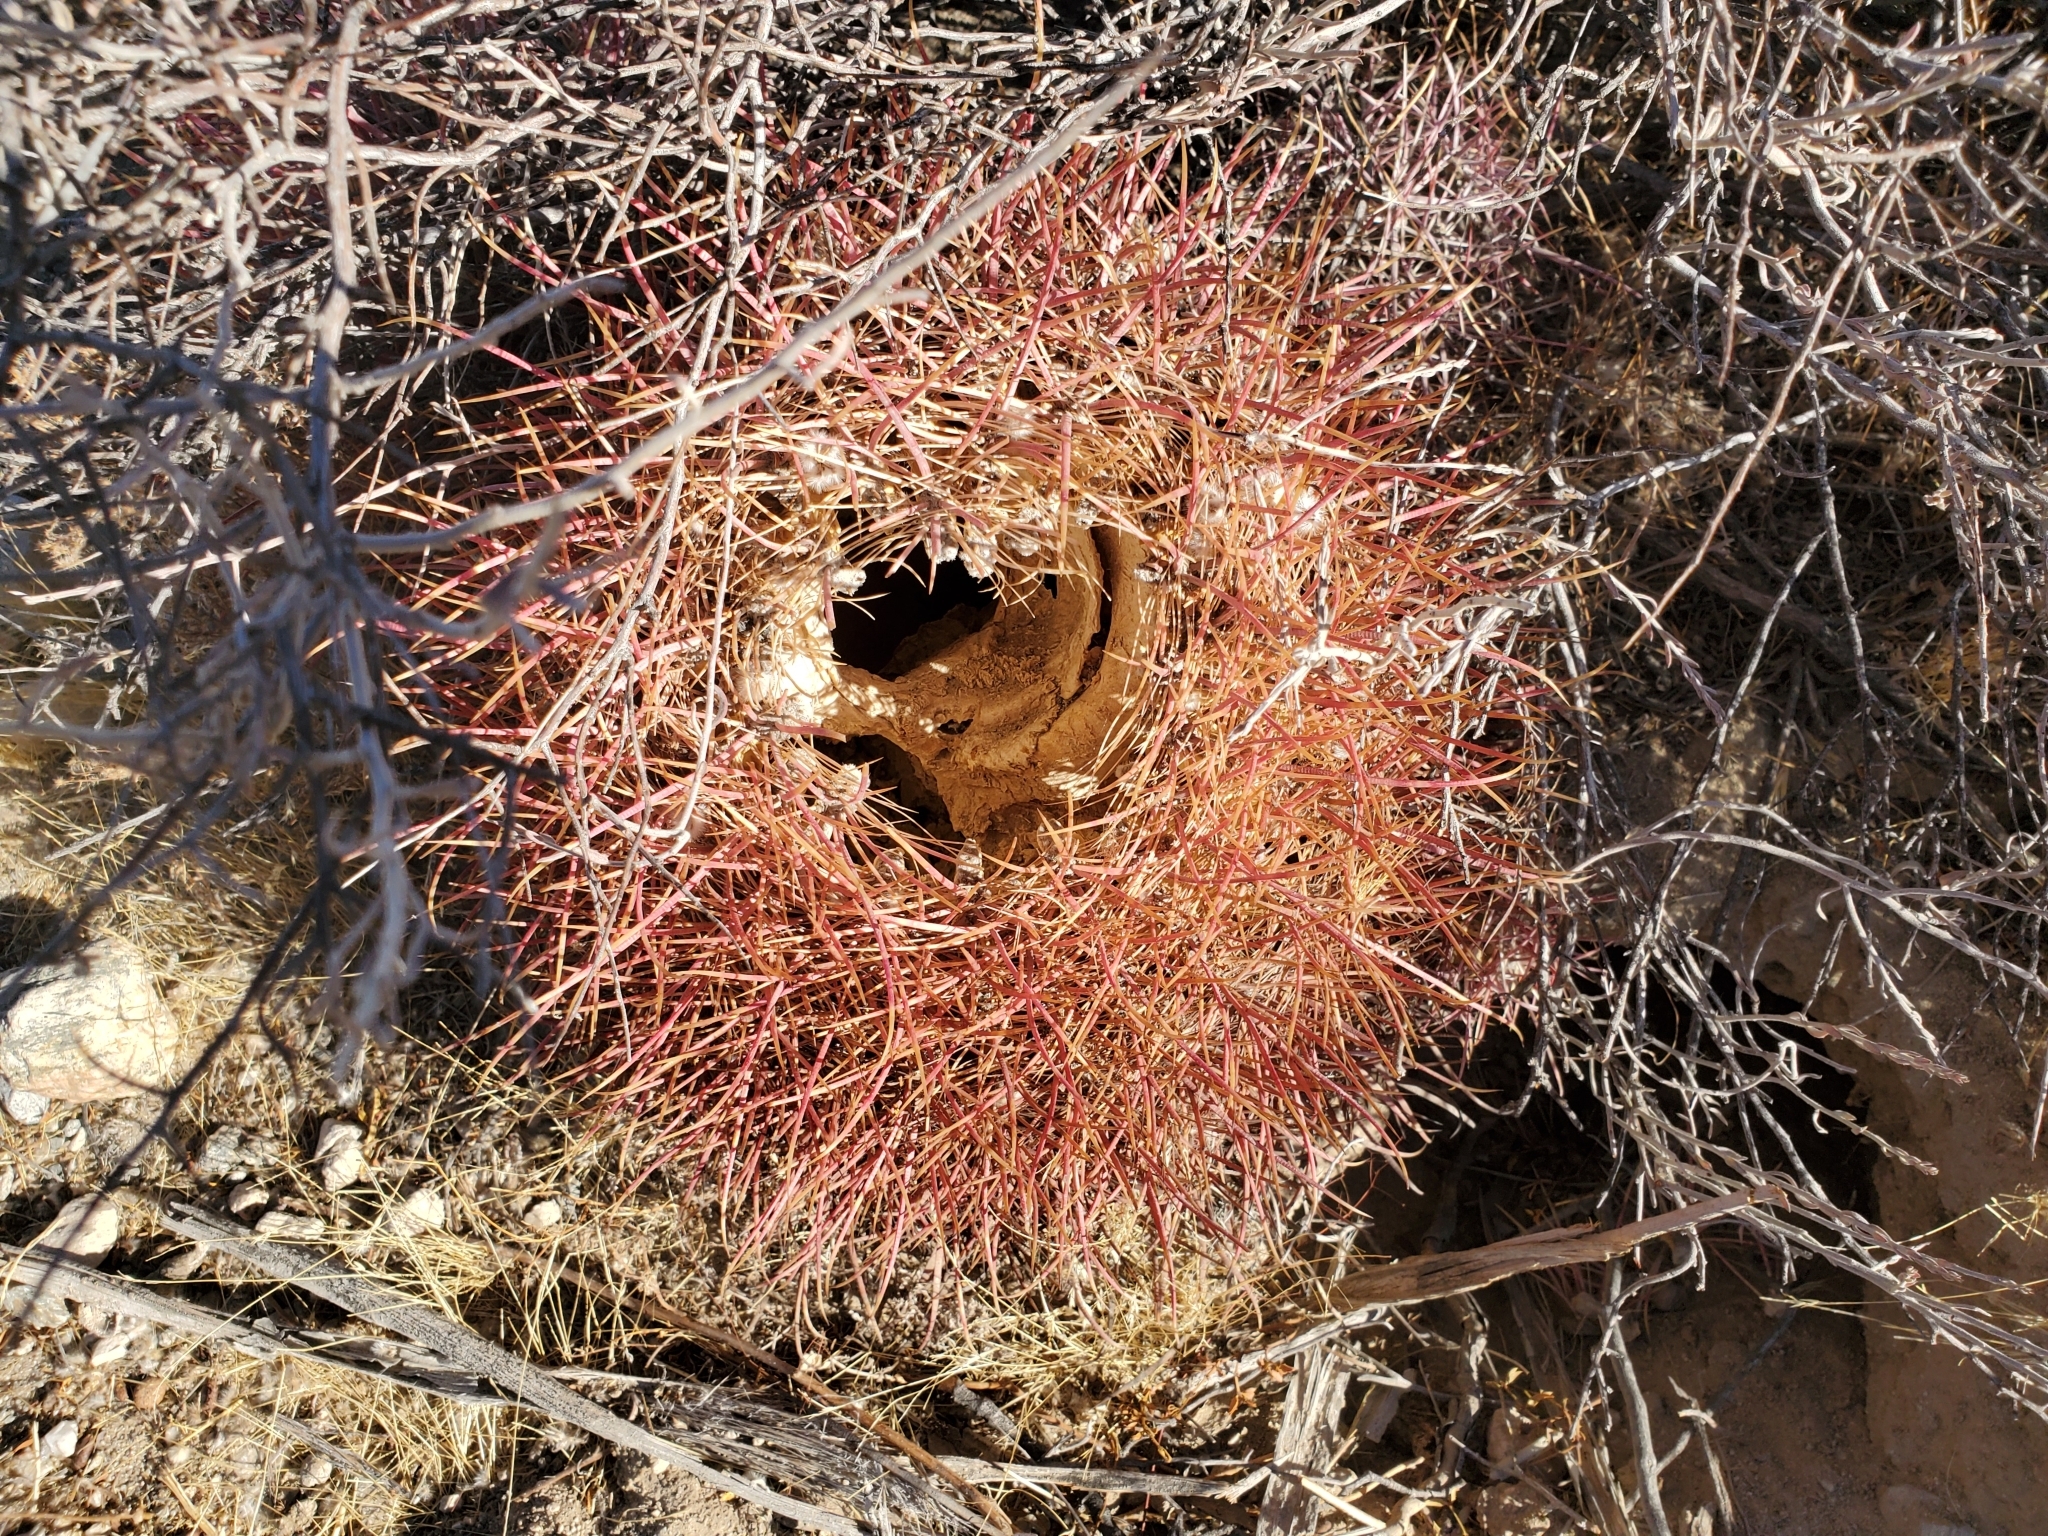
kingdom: Plantae
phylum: Tracheophyta
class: Magnoliopsida
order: Caryophyllales
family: Cactaceae
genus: Ferocactus
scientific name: Ferocactus cylindraceus
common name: California barrel cactus
